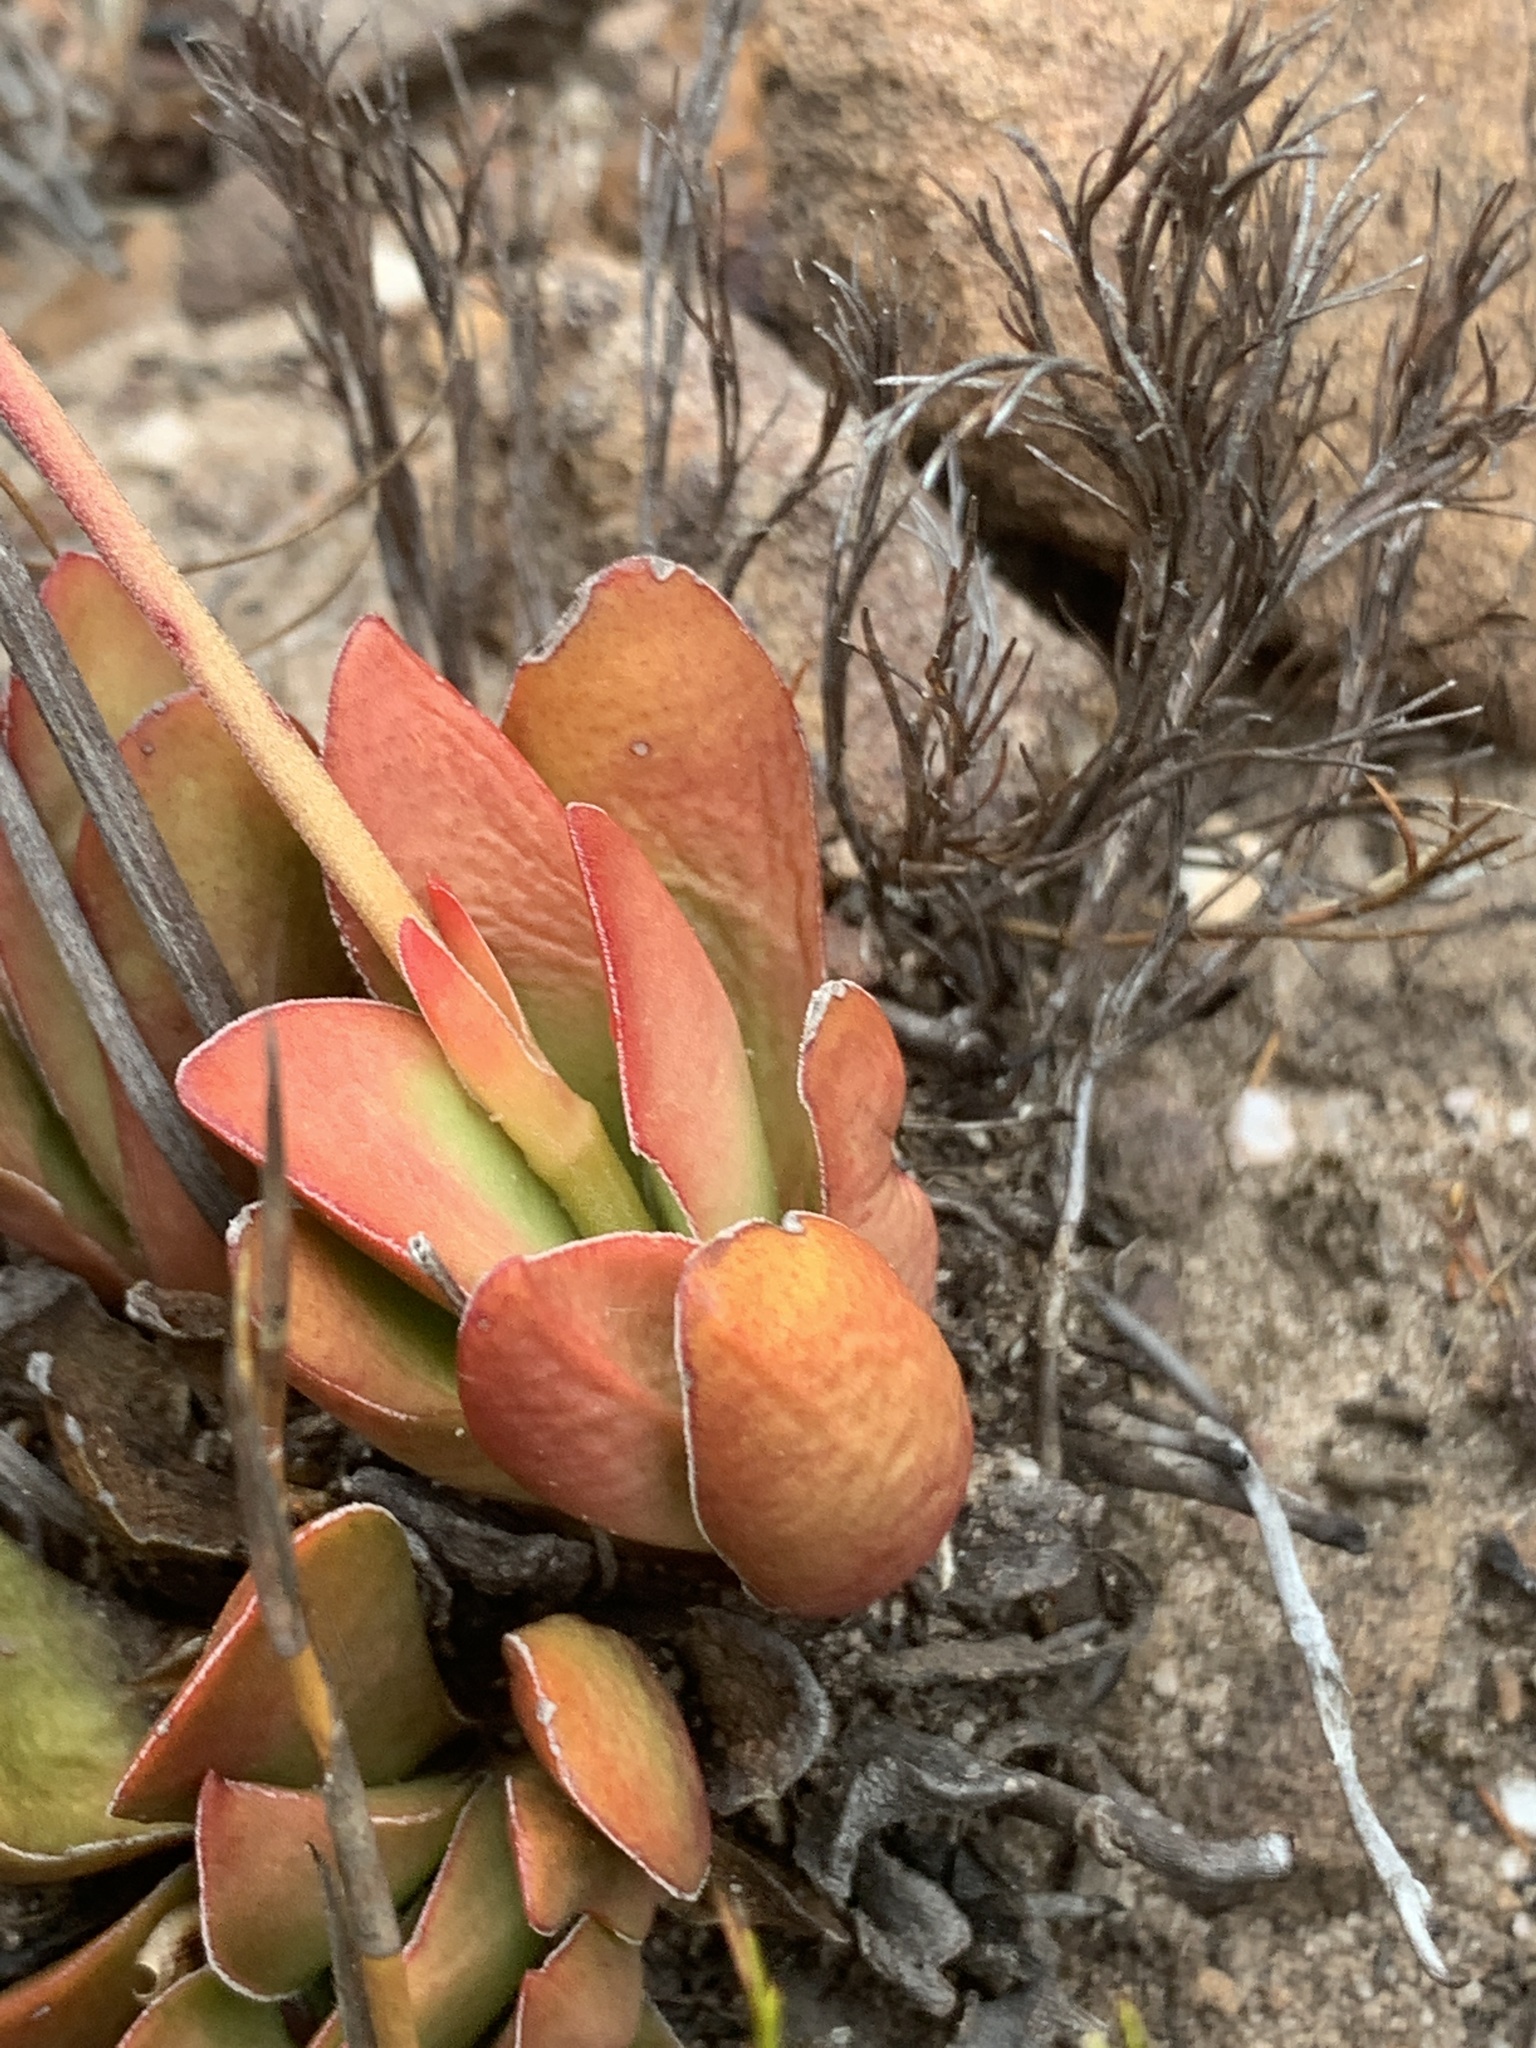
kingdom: Plantae
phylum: Tracheophyta
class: Magnoliopsida
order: Saxifragales
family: Crassulaceae
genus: Crassula
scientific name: Crassula nudicaulis
